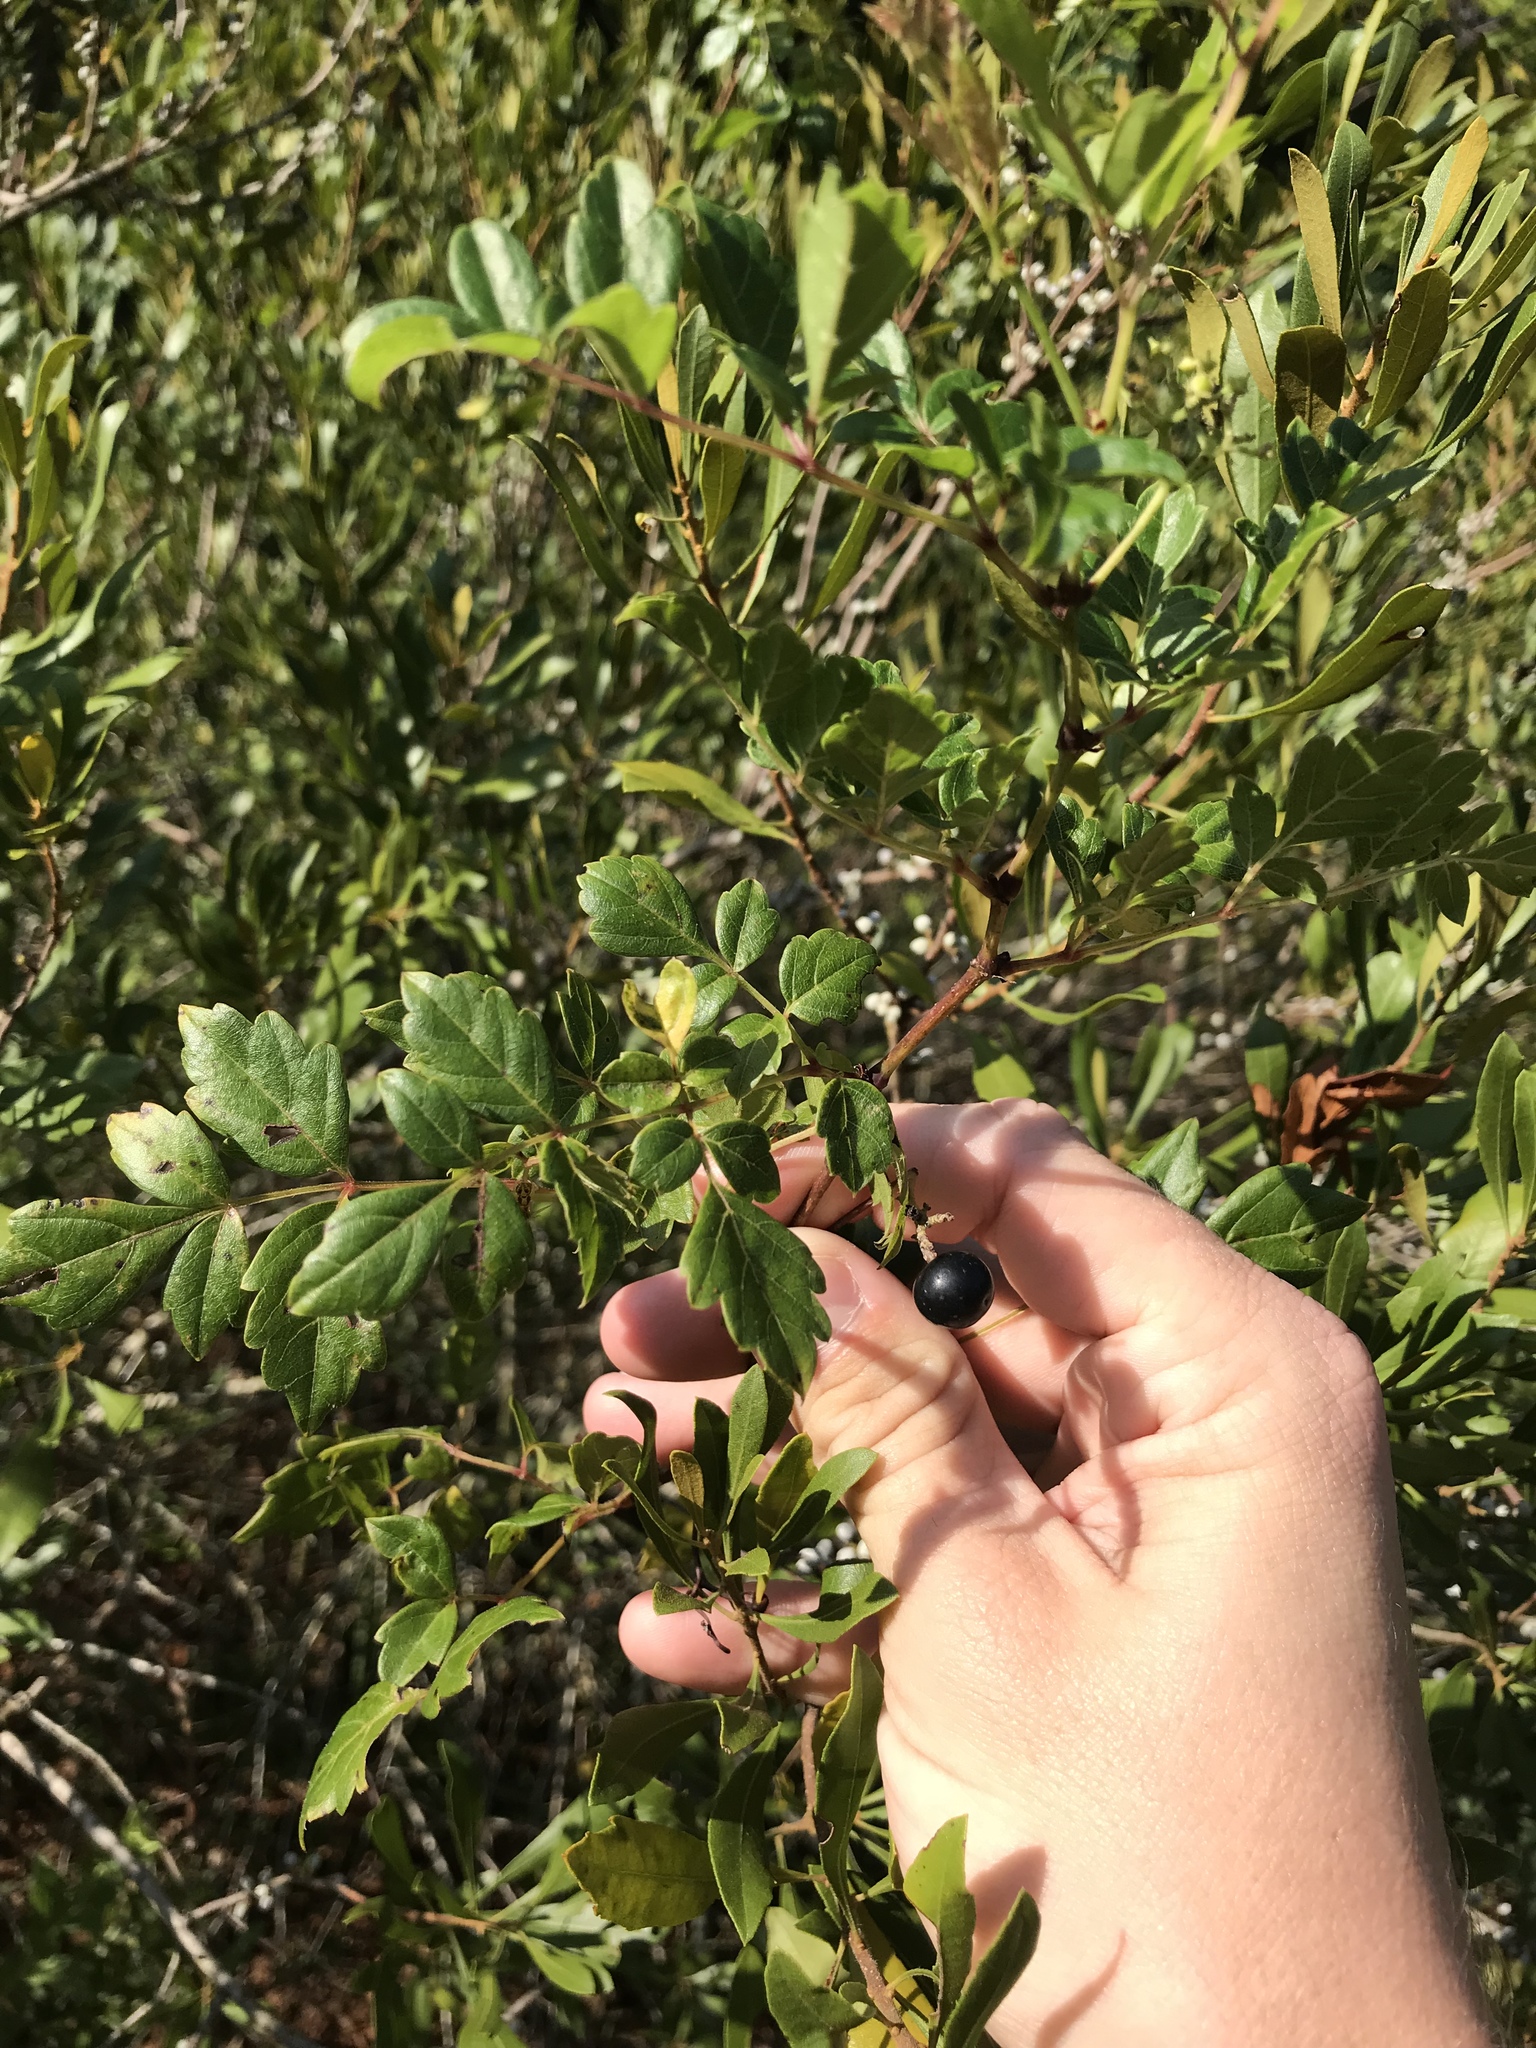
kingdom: Plantae
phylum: Tracheophyta
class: Magnoliopsida
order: Vitales
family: Vitaceae
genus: Nekemias
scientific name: Nekemias arborea
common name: Peppervine
